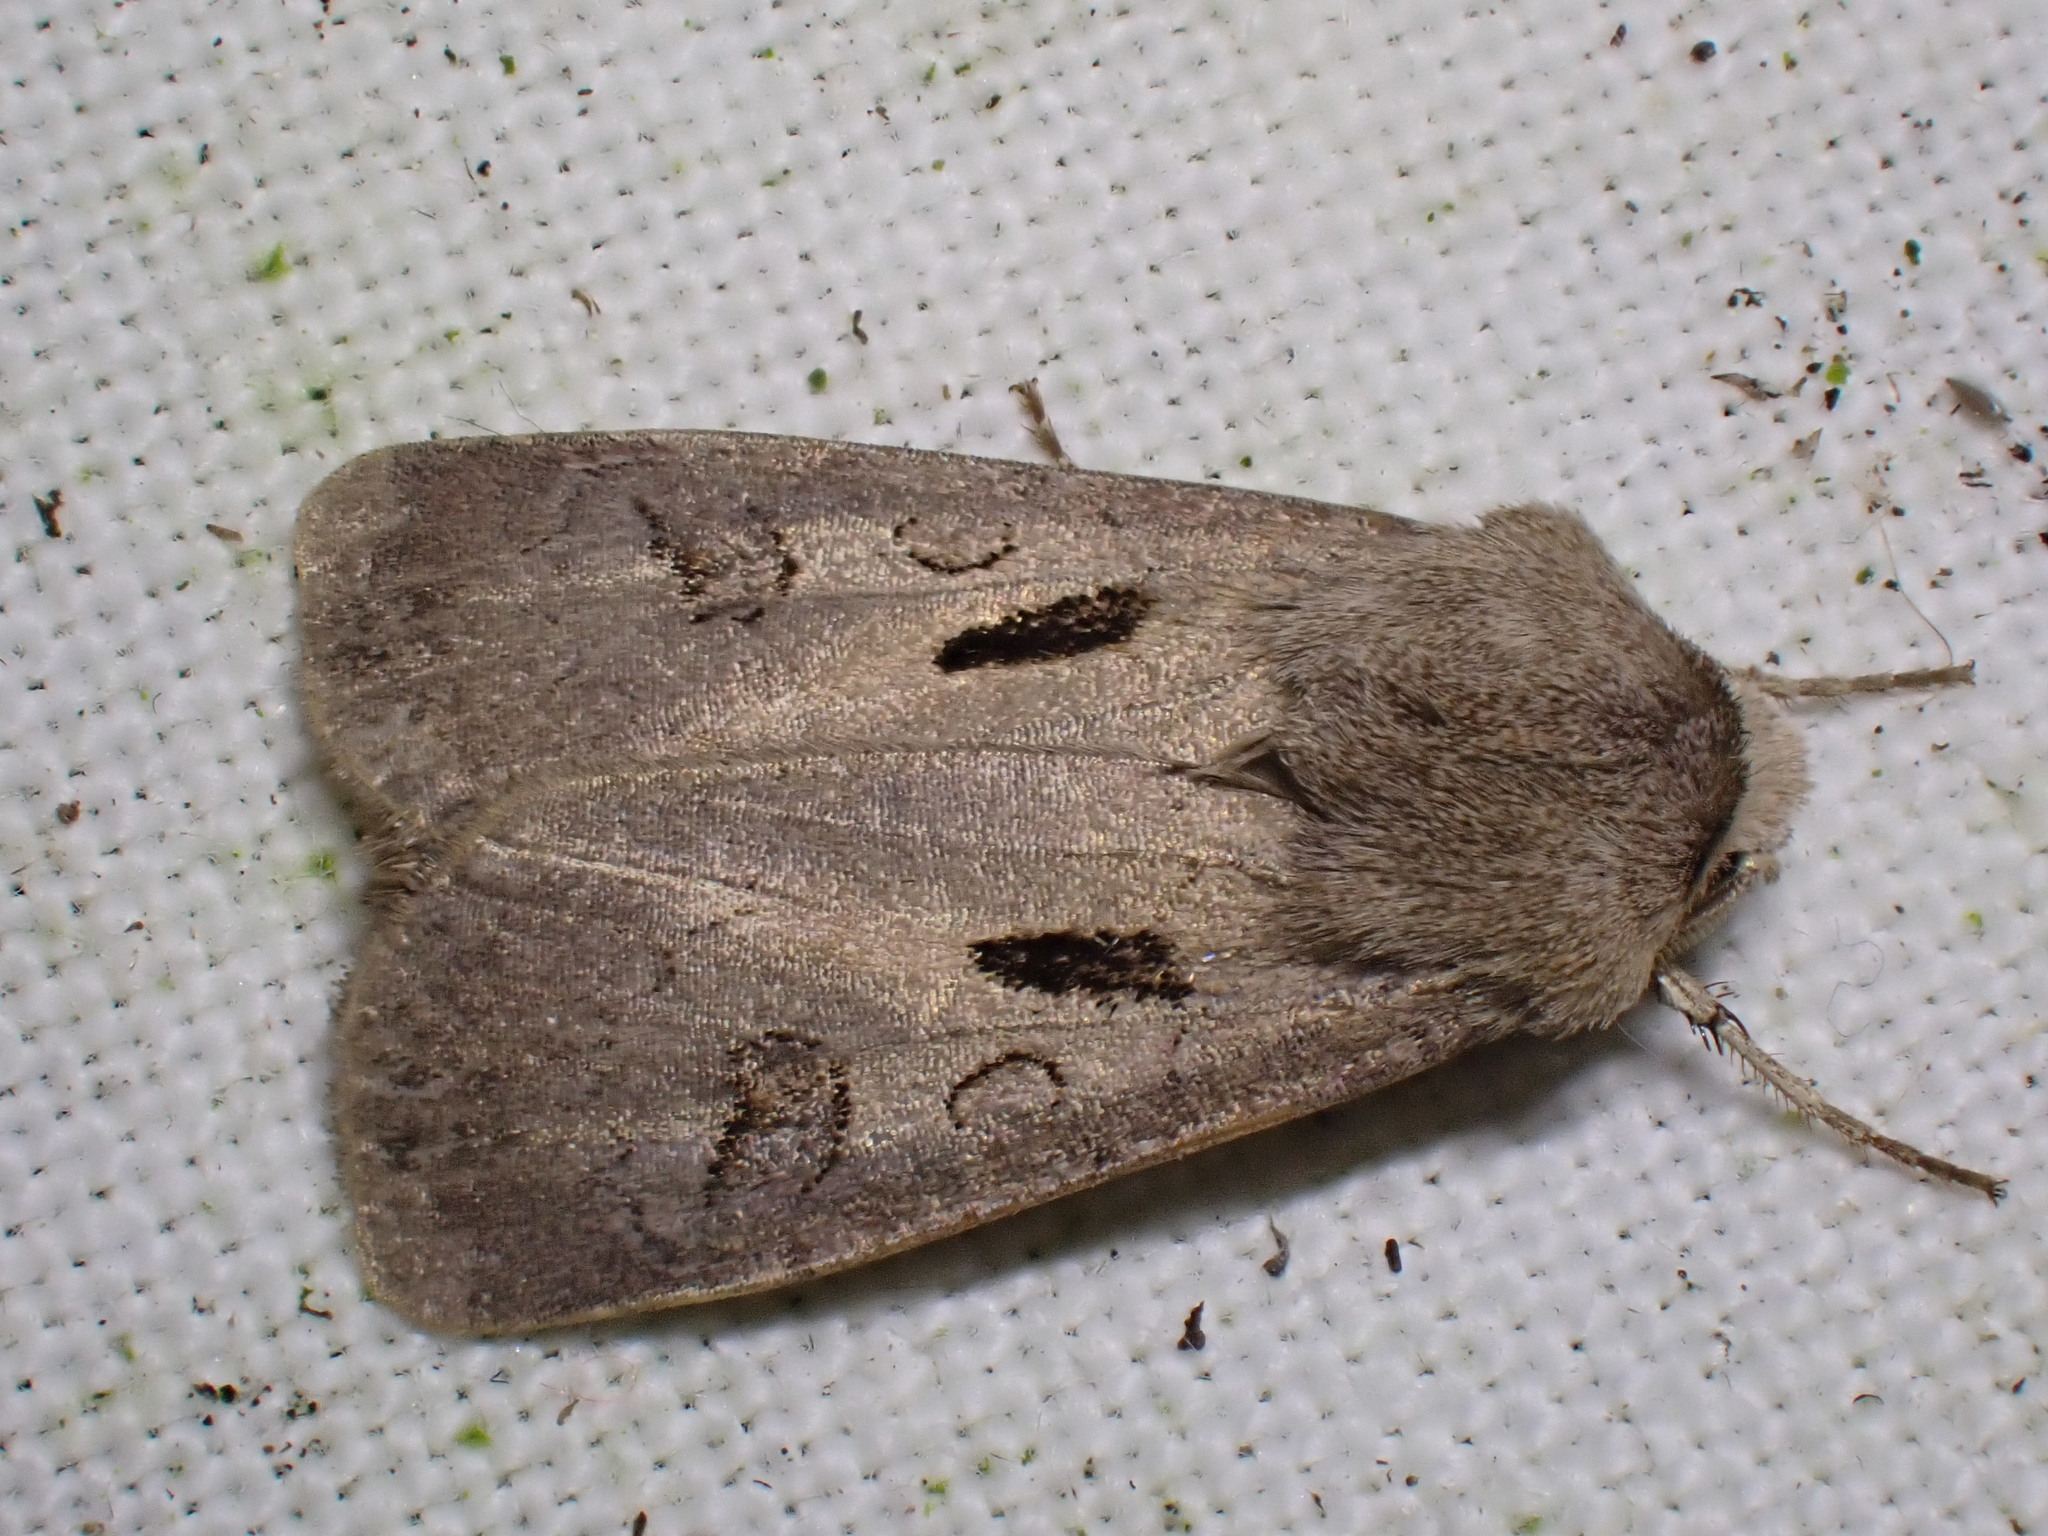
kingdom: Animalia
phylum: Arthropoda
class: Insecta
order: Lepidoptera
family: Noctuidae
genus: Agrotis
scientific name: Agrotis exclamationis
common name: Heart and dart
